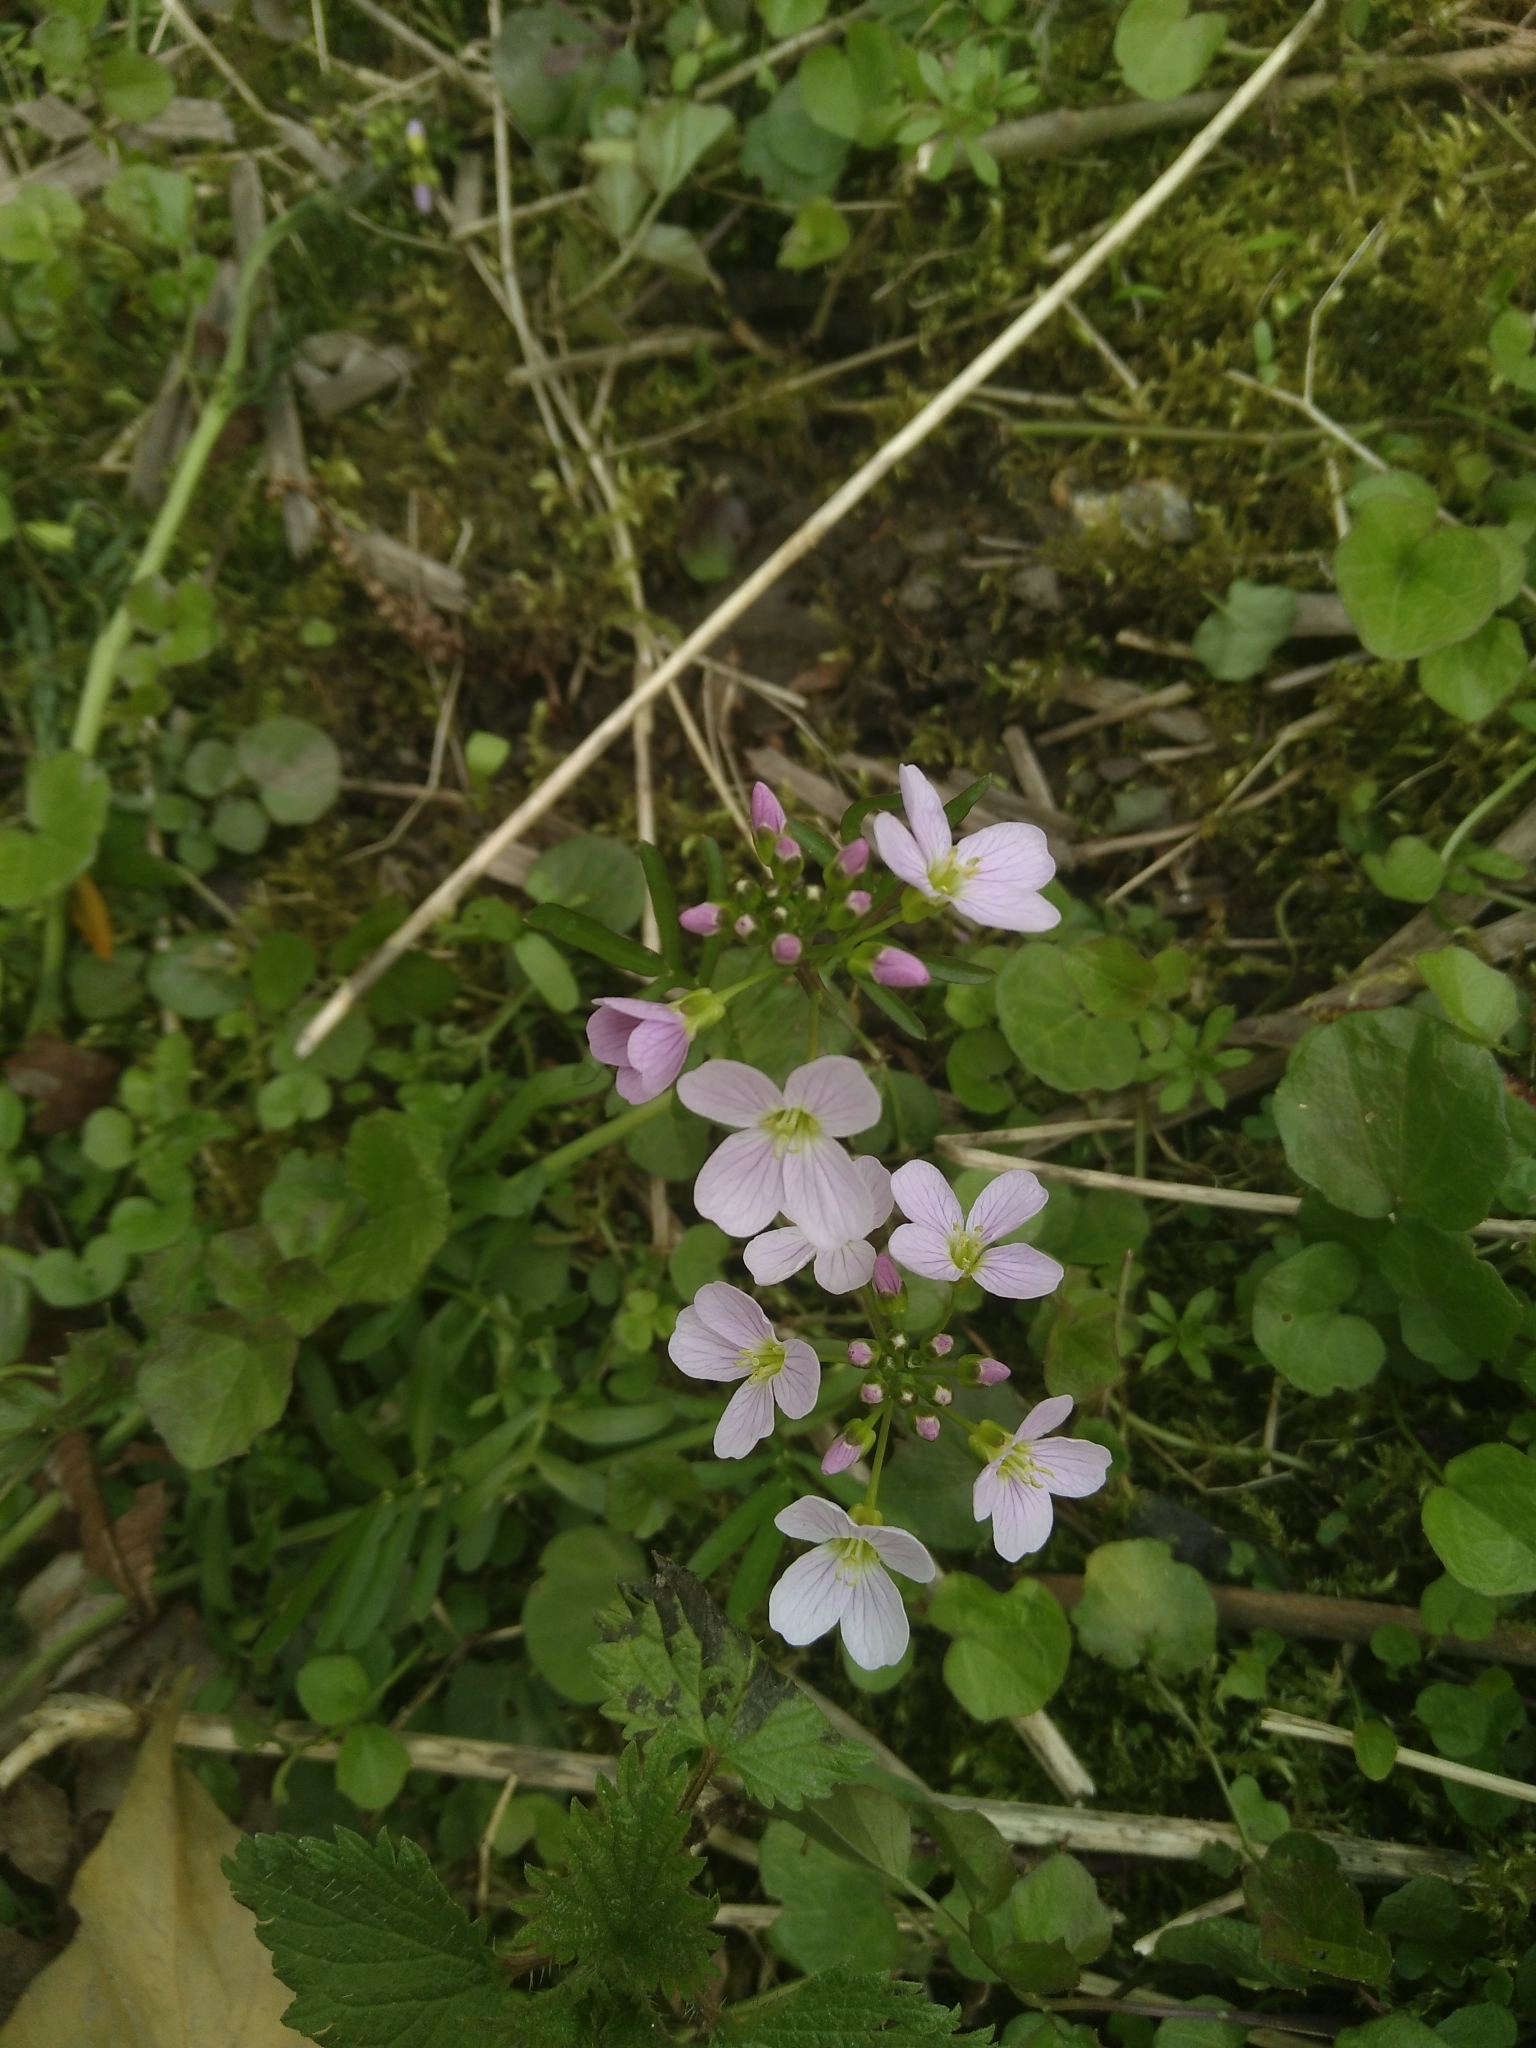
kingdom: Plantae
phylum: Tracheophyta
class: Magnoliopsida
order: Brassicales
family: Brassicaceae
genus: Cardamine
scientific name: Cardamine pratensis
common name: Cuckoo flower
